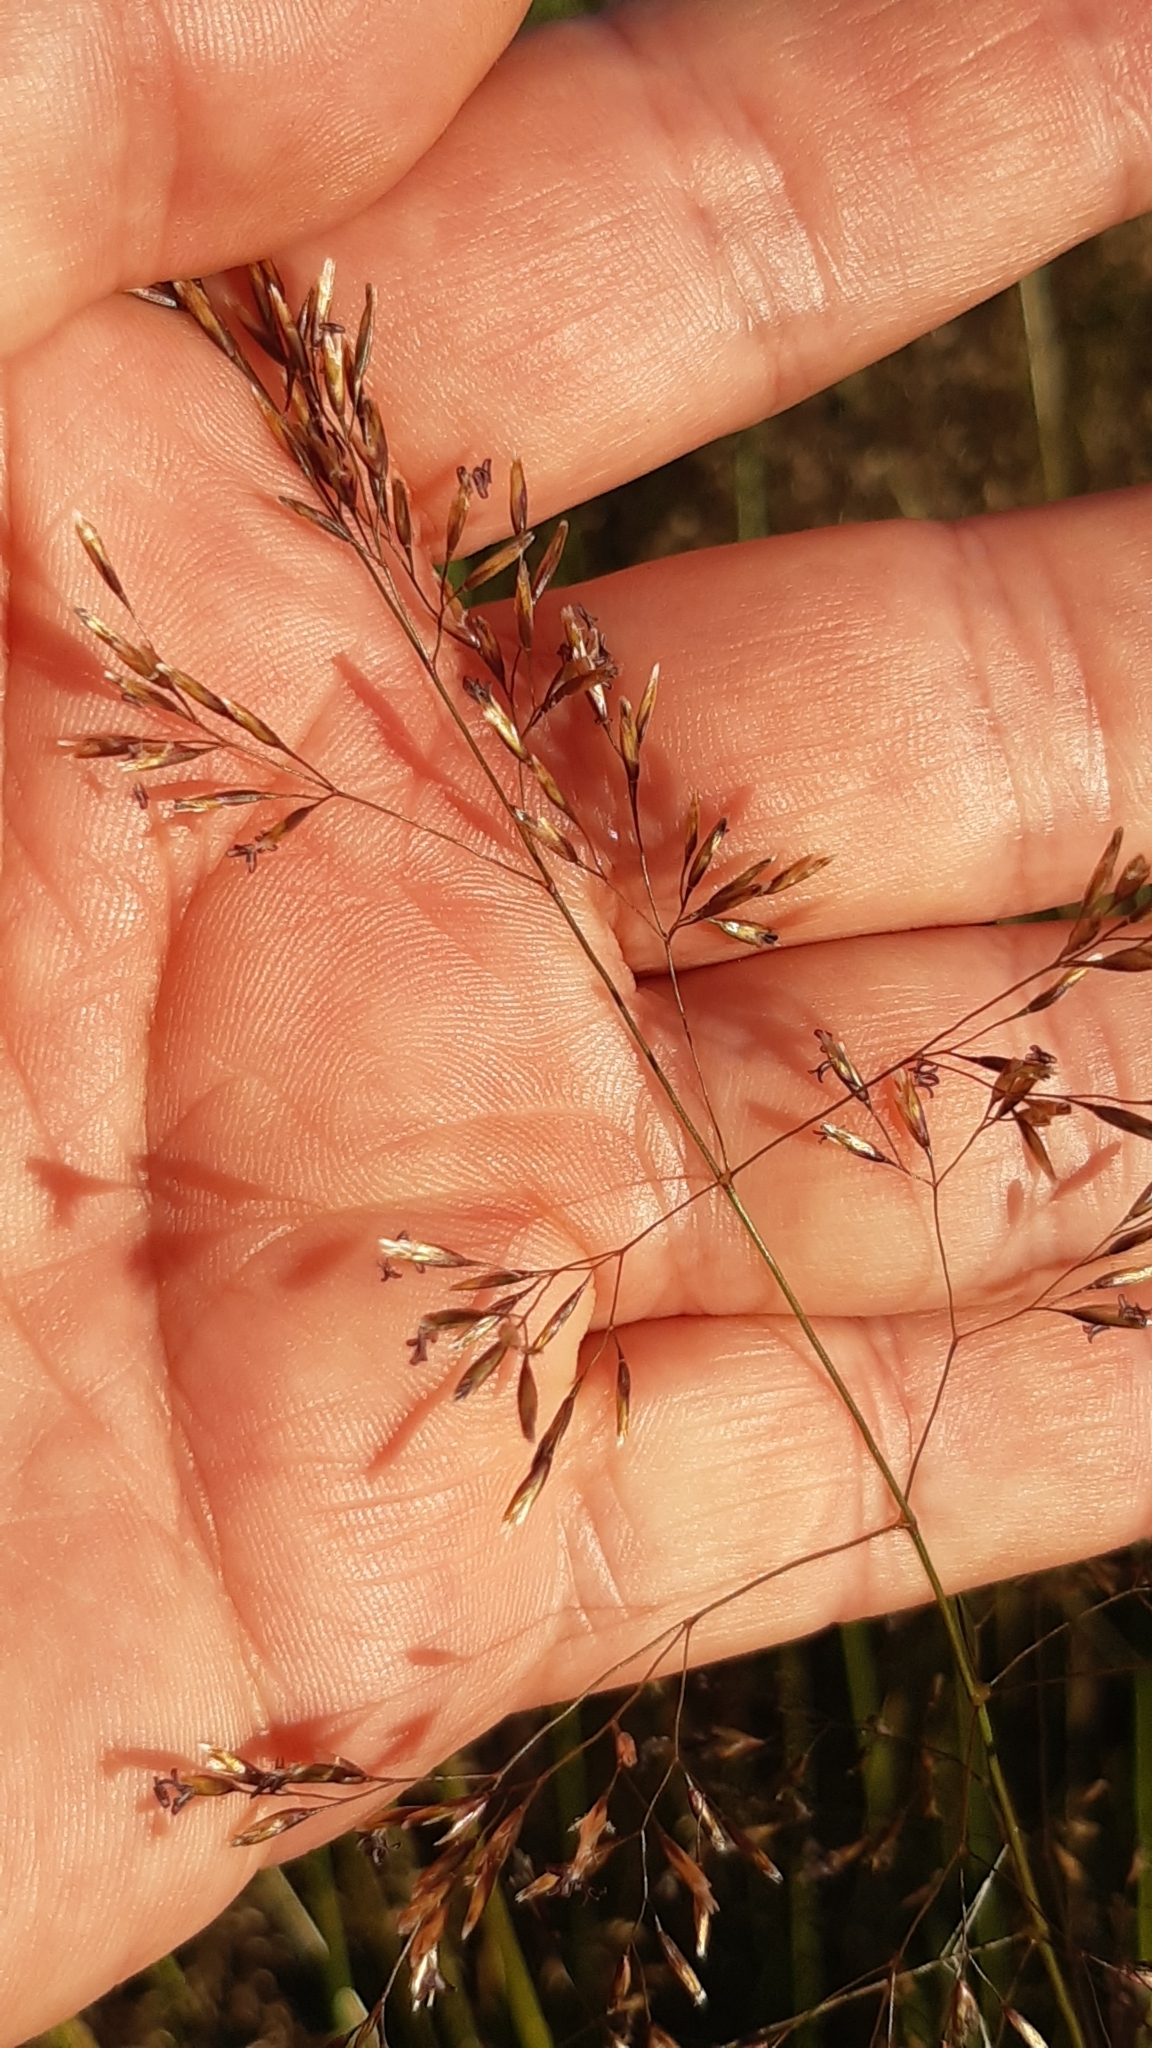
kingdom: Plantae
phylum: Tracheophyta
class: Liliopsida
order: Poales
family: Poaceae
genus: Agrostis
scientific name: Agrostis capillaris
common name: Colonial bentgrass
